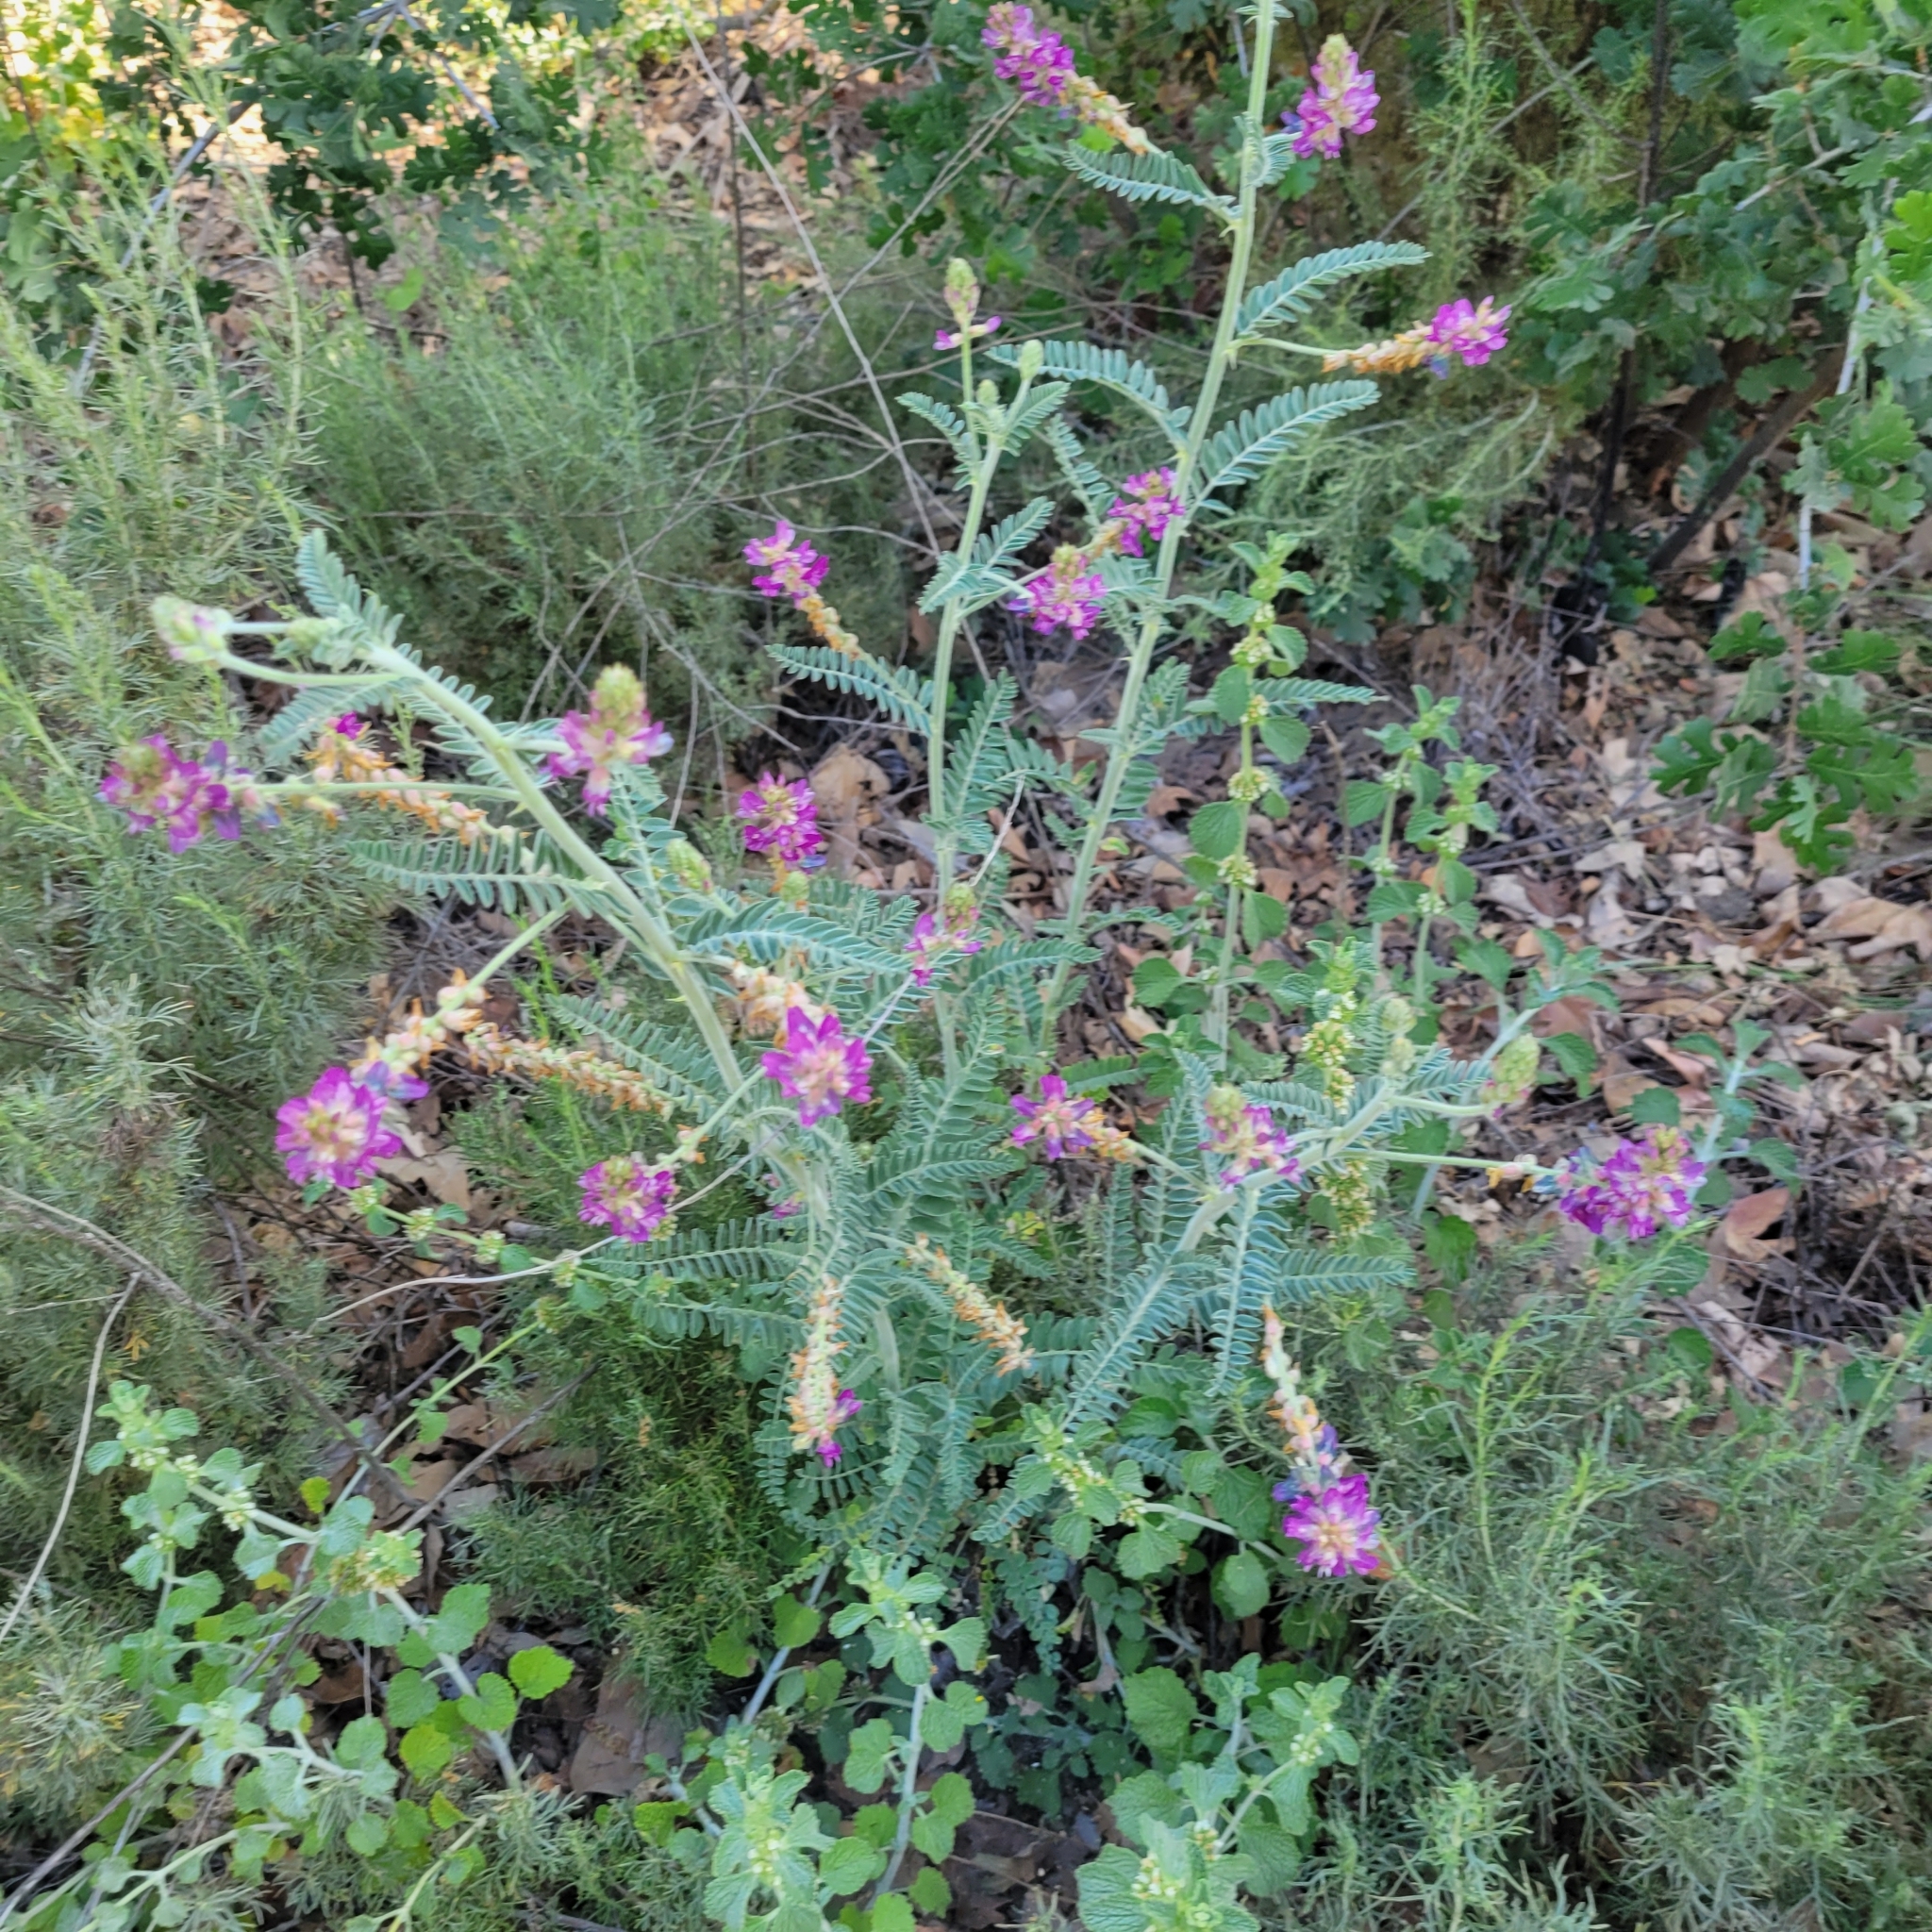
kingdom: Plantae
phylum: Tracheophyta
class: Magnoliopsida
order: Fabales
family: Fabaceae
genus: Astragalus
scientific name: Astragalus brauntonii
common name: Braunton's milk-vetch
